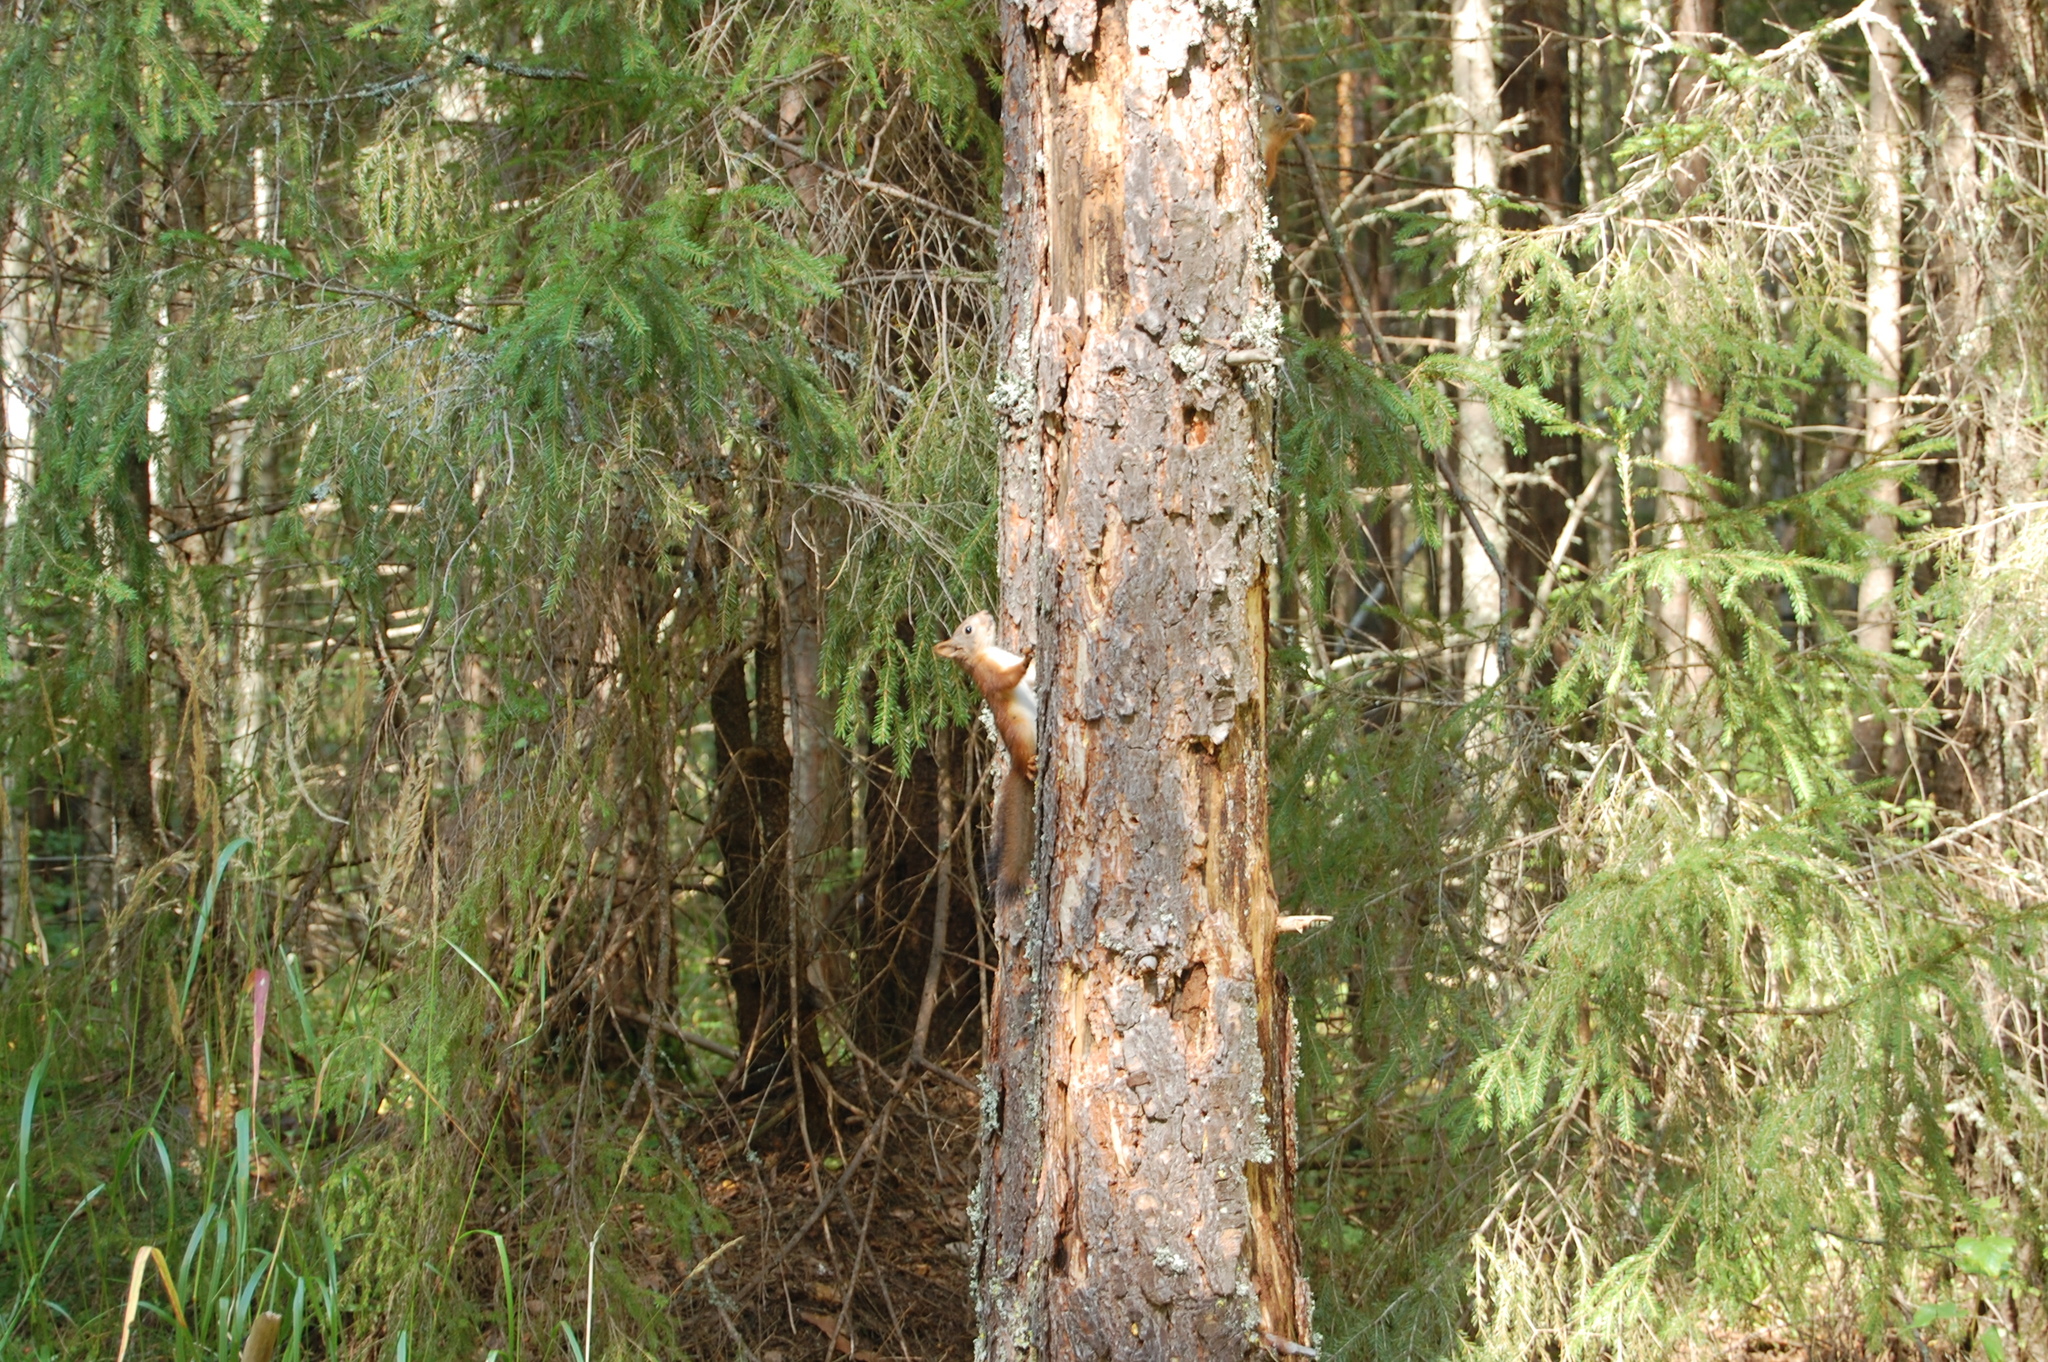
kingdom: Animalia
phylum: Chordata
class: Mammalia
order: Rodentia
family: Sciuridae
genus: Sciurus
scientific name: Sciurus vulgaris
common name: Eurasian red squirrel
